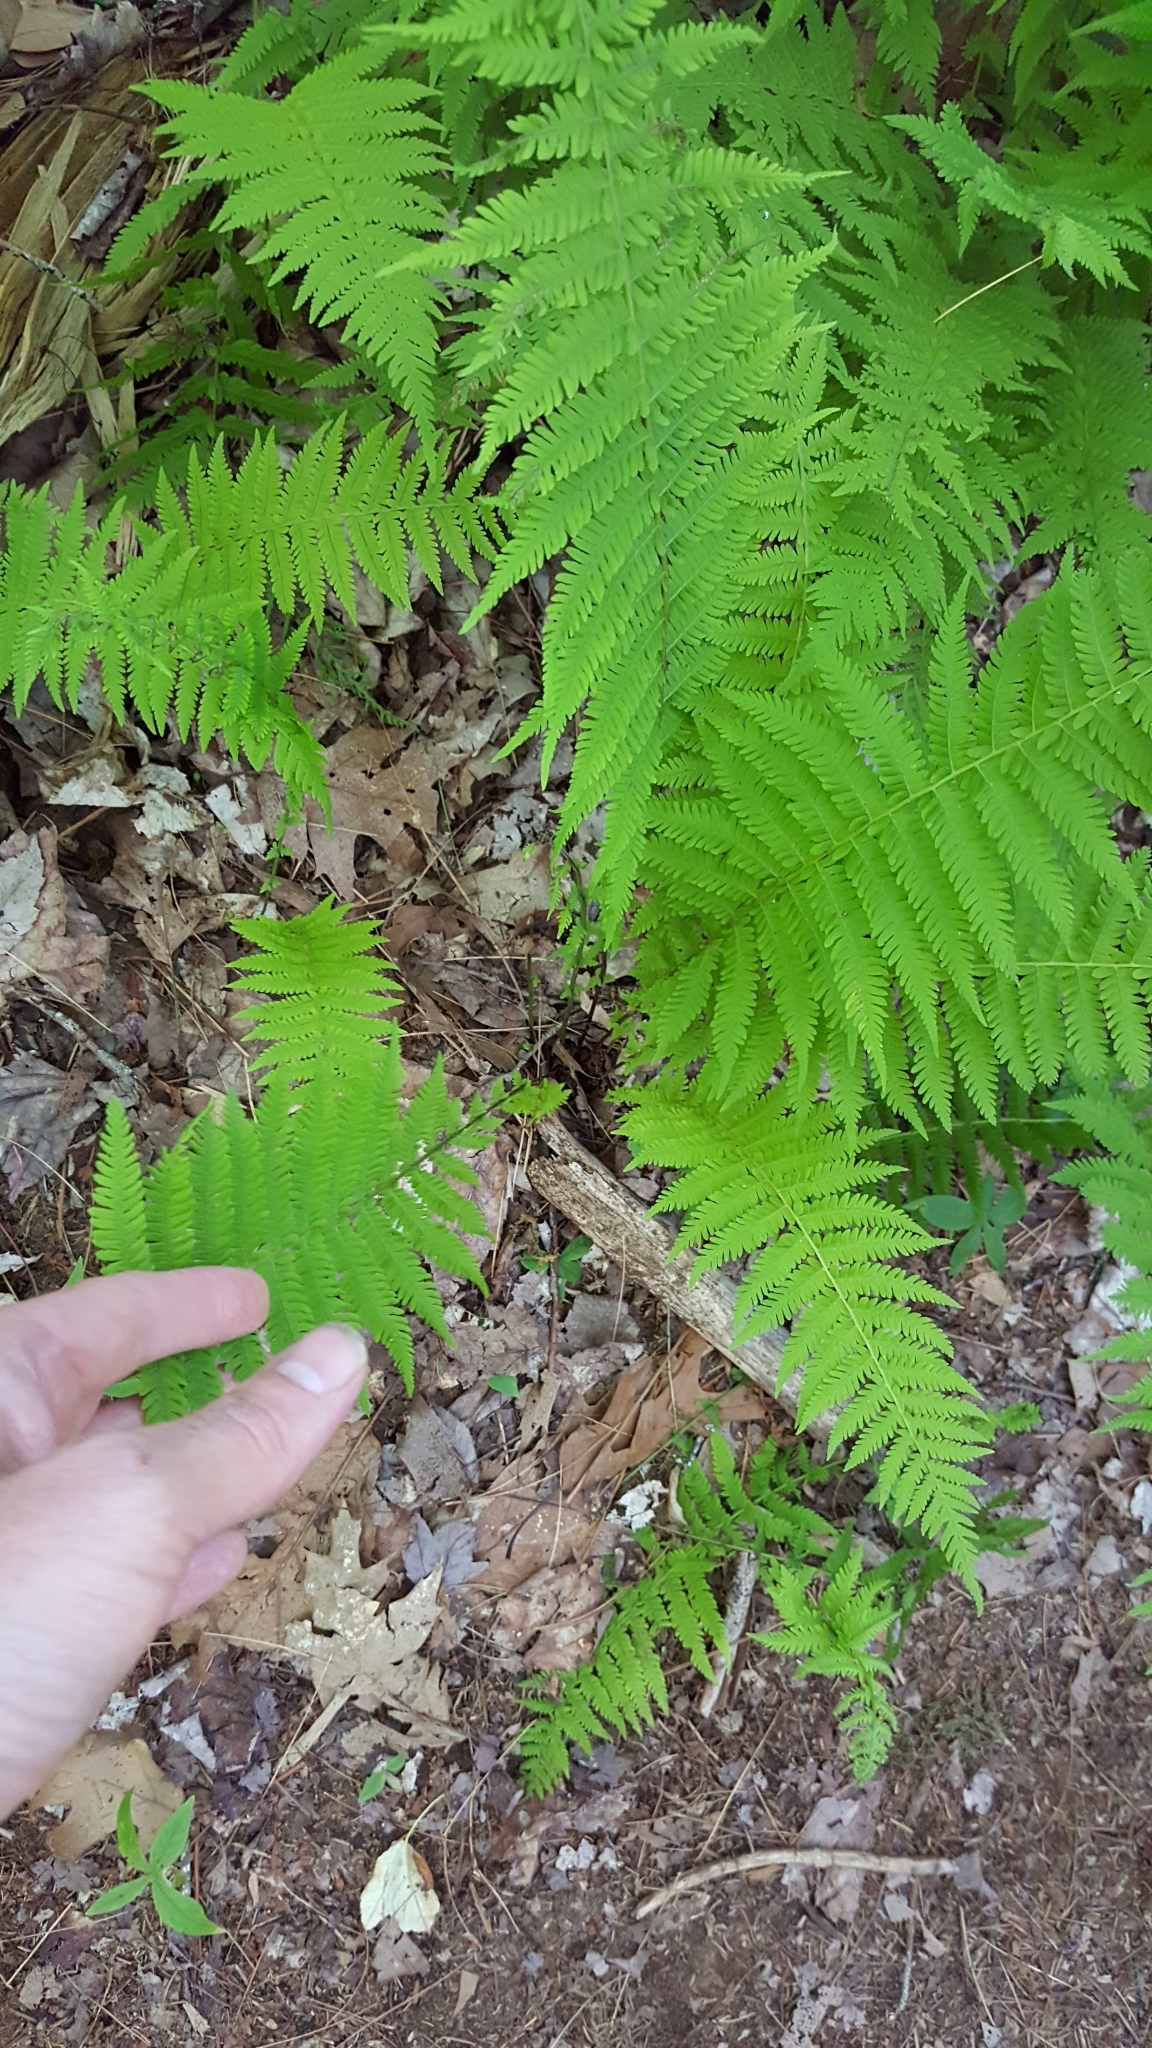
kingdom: Plantae
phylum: Tracheophyta
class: Polypodiopsida
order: Polypodiales
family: Thelypteridaceae
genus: Amauropelta
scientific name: Amauropelta noveboracensis
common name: New york fern
